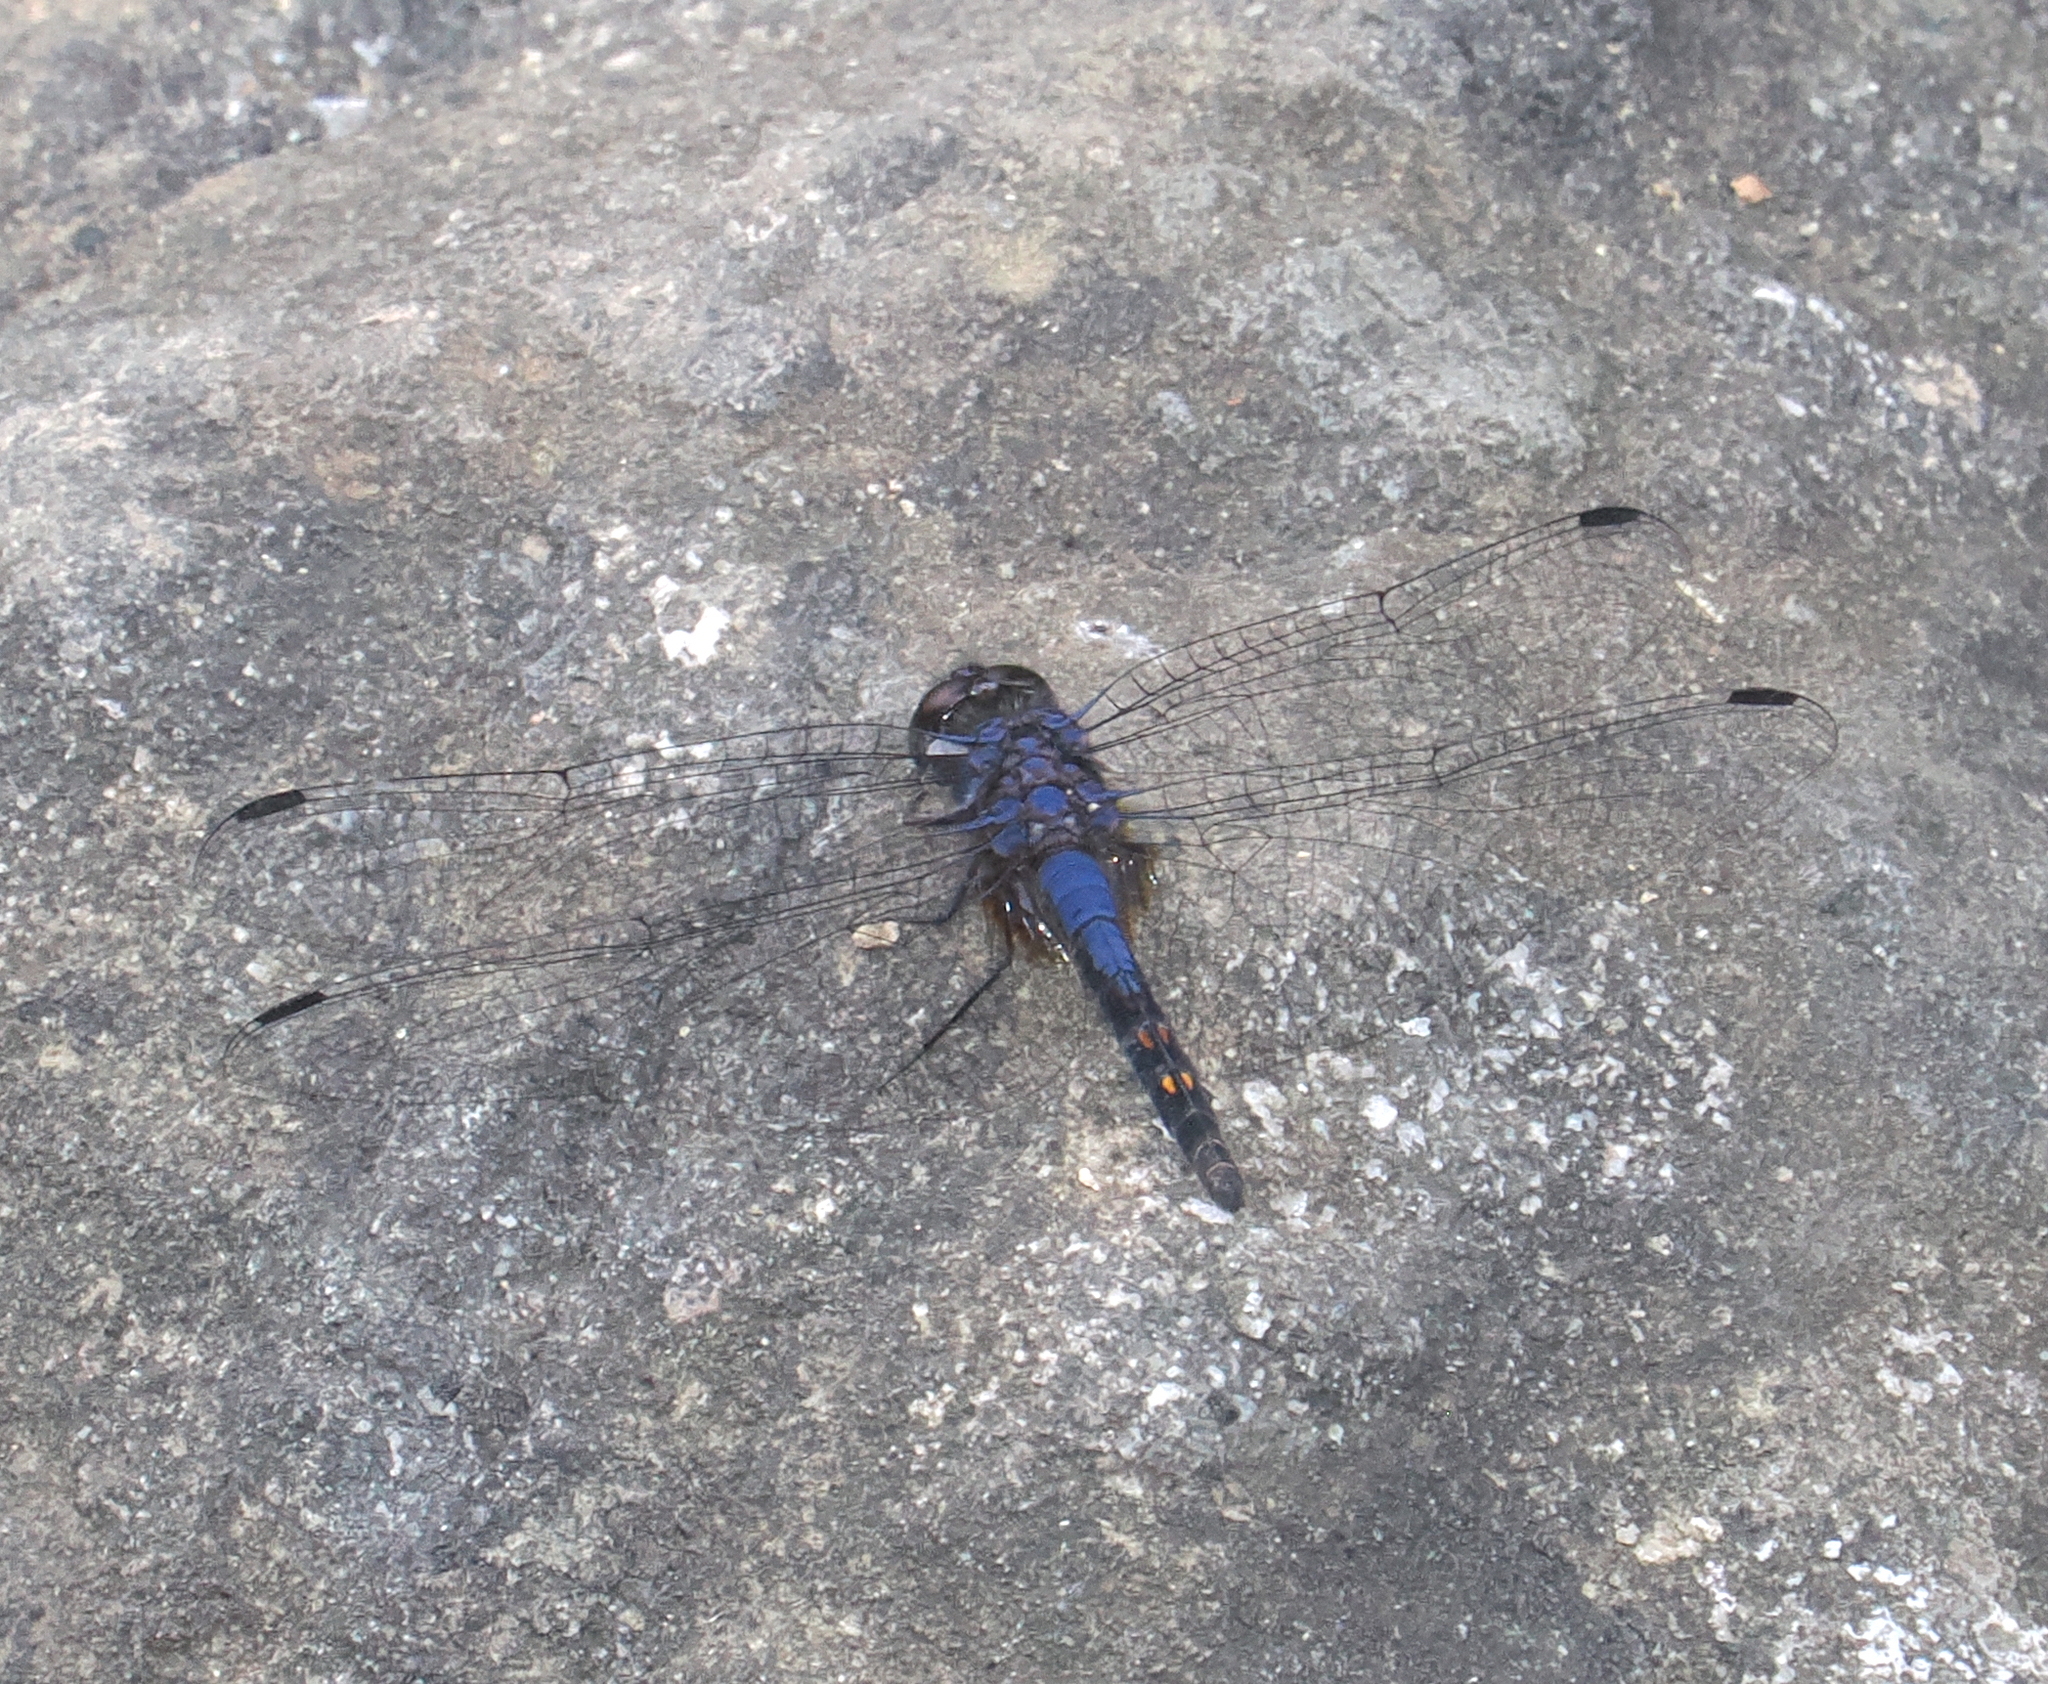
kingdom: Animalia
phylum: Arthropoda
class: Insecta
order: Odonata
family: Libellulidae
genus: Trithemis
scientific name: Trithemis festiva
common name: Indigo dropwing
